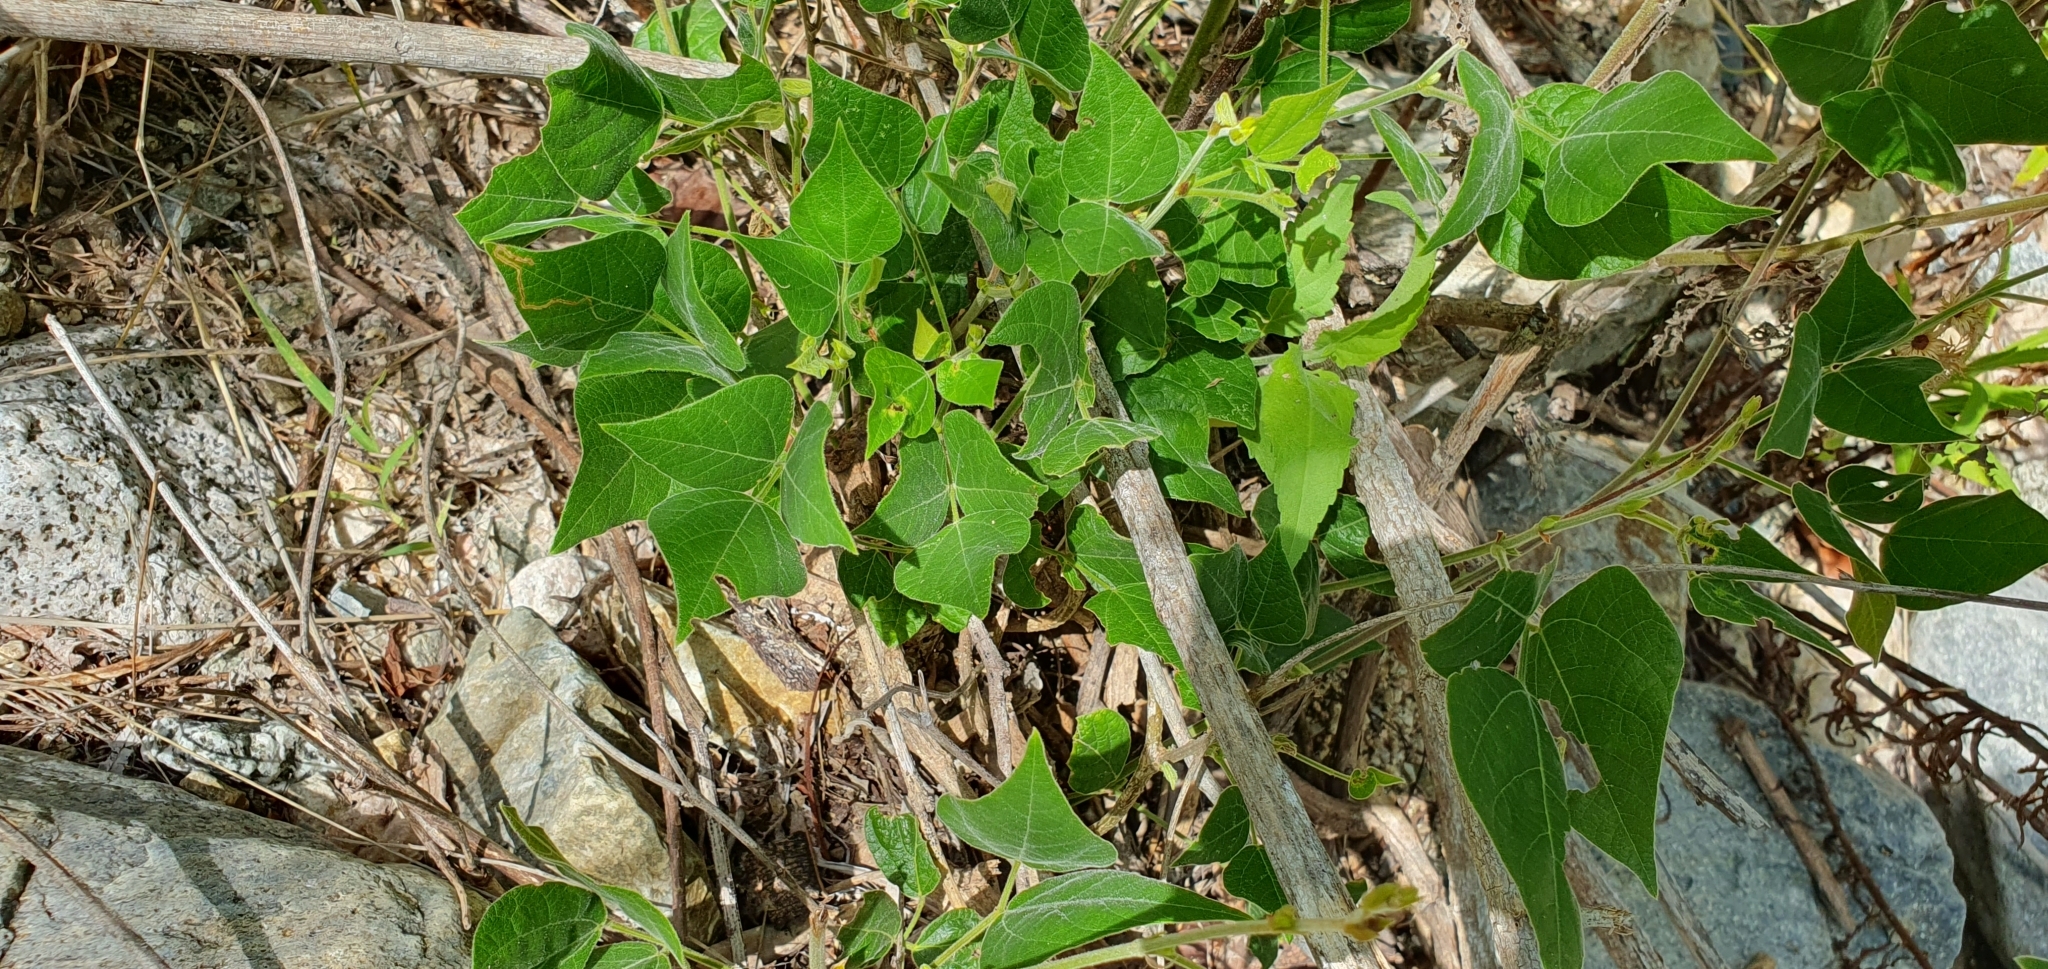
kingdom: Plantae
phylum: Tracheophyta
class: Magnoliopsida
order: Fabales
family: Fabaceae
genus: Rhynchosia
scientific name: Rhynchosia precatoria
